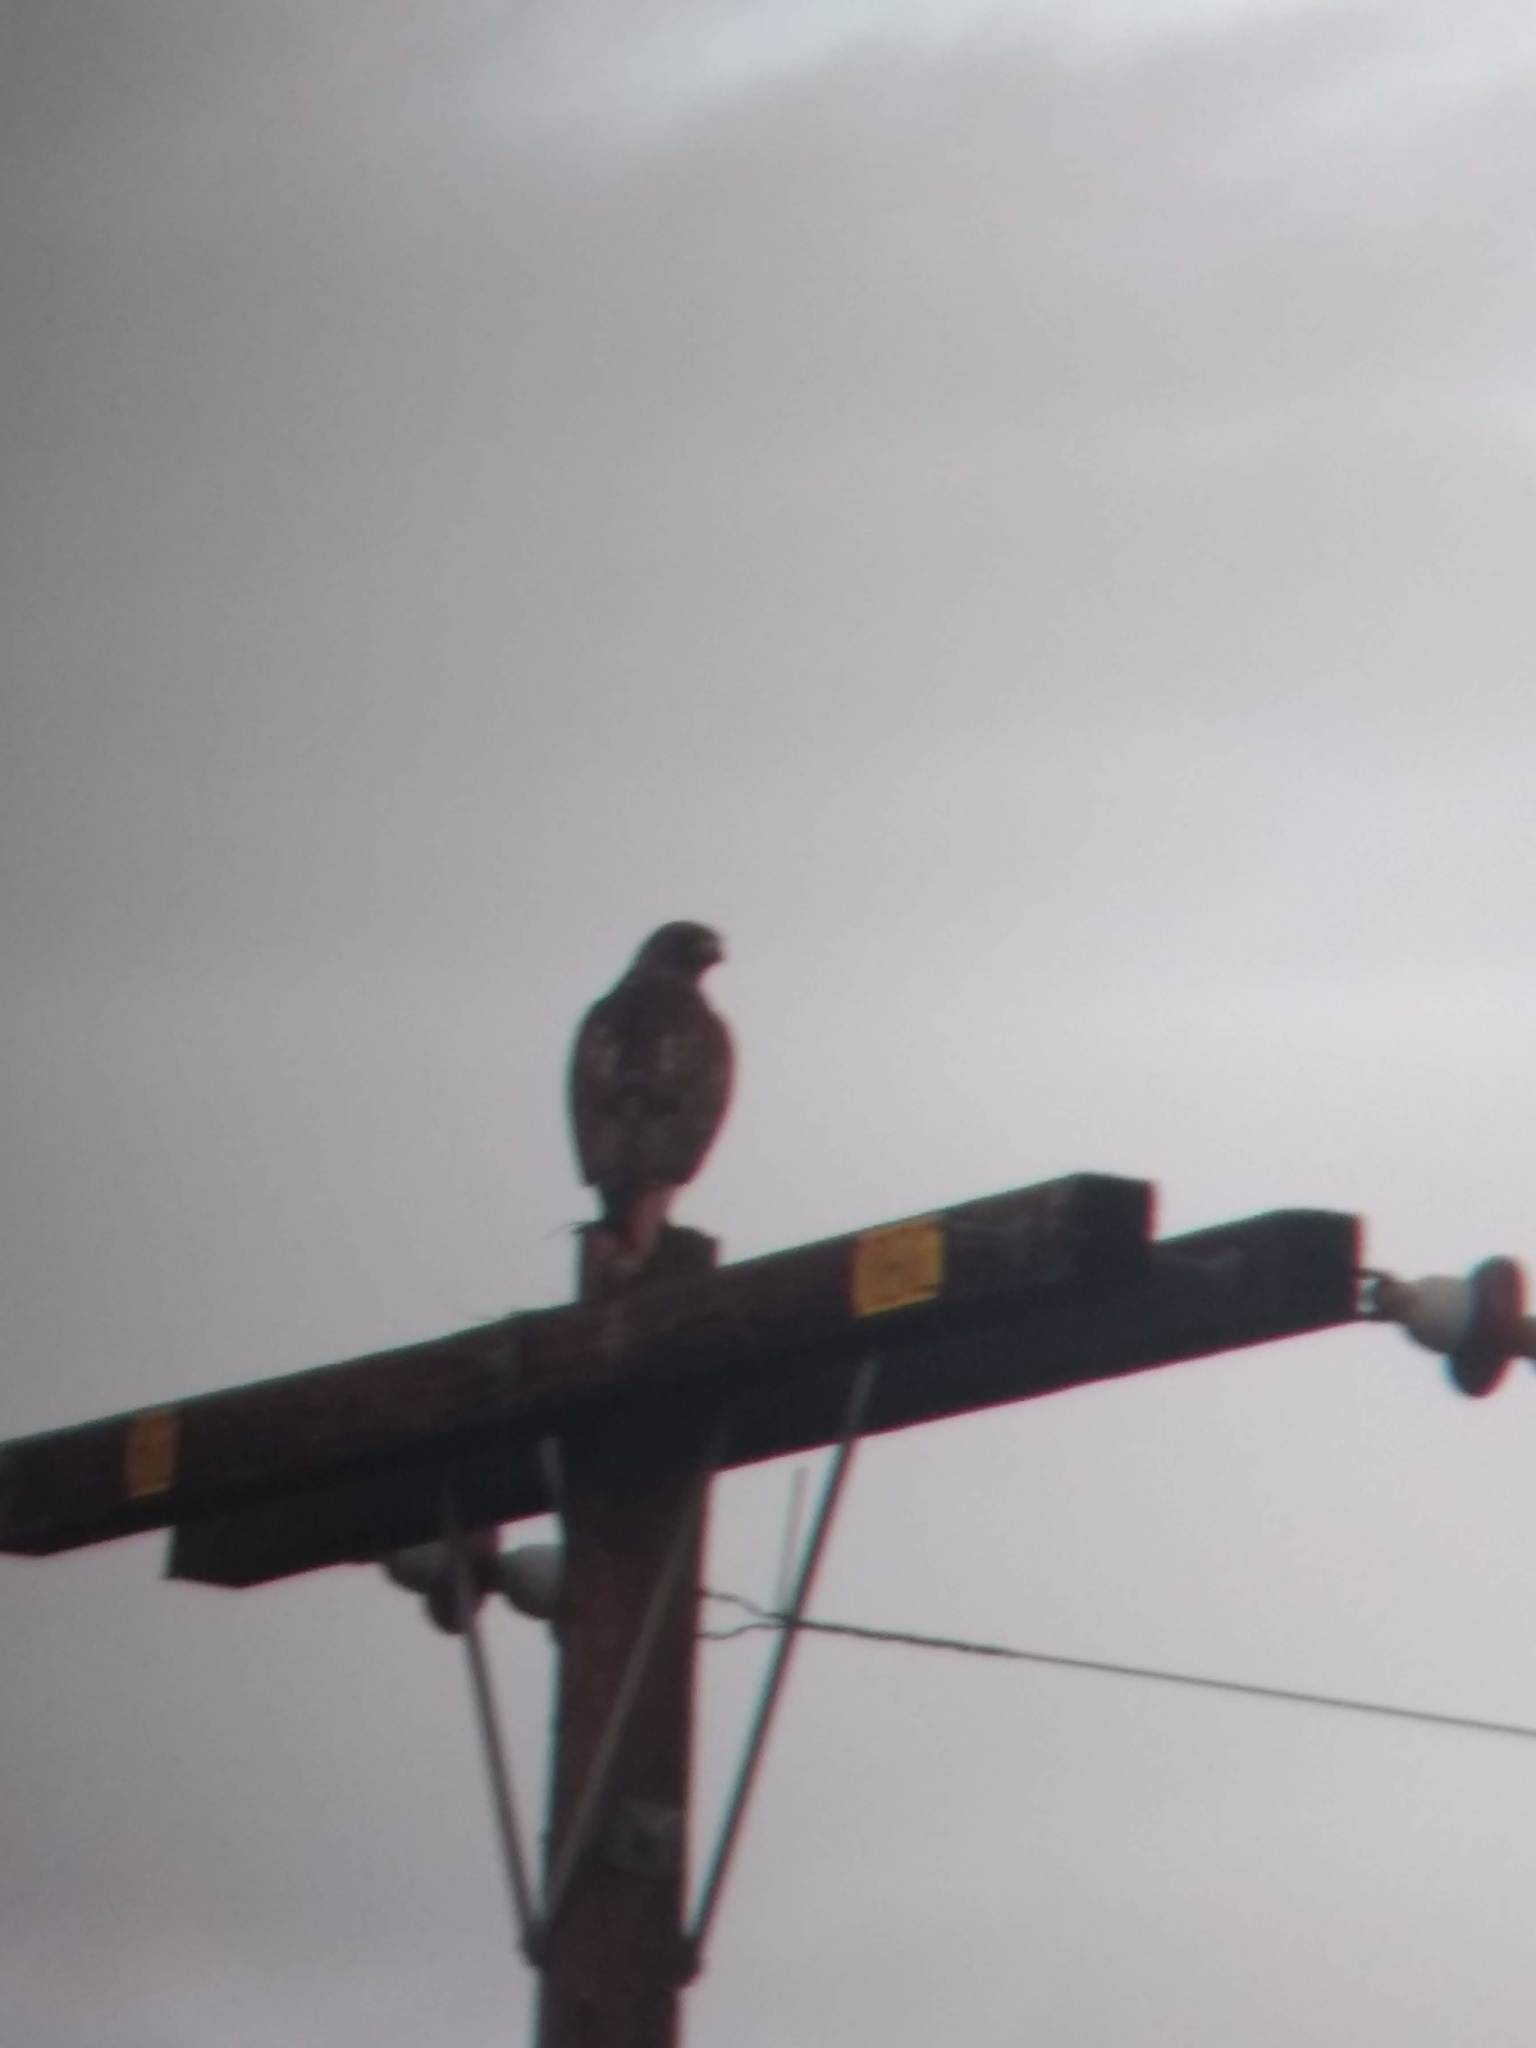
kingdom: Animalia
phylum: Chordata
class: Aves
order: Accipitriformes
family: Accipitridae
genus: Buteo
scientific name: Buteo jamaicensis
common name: Red-tailed hawk
